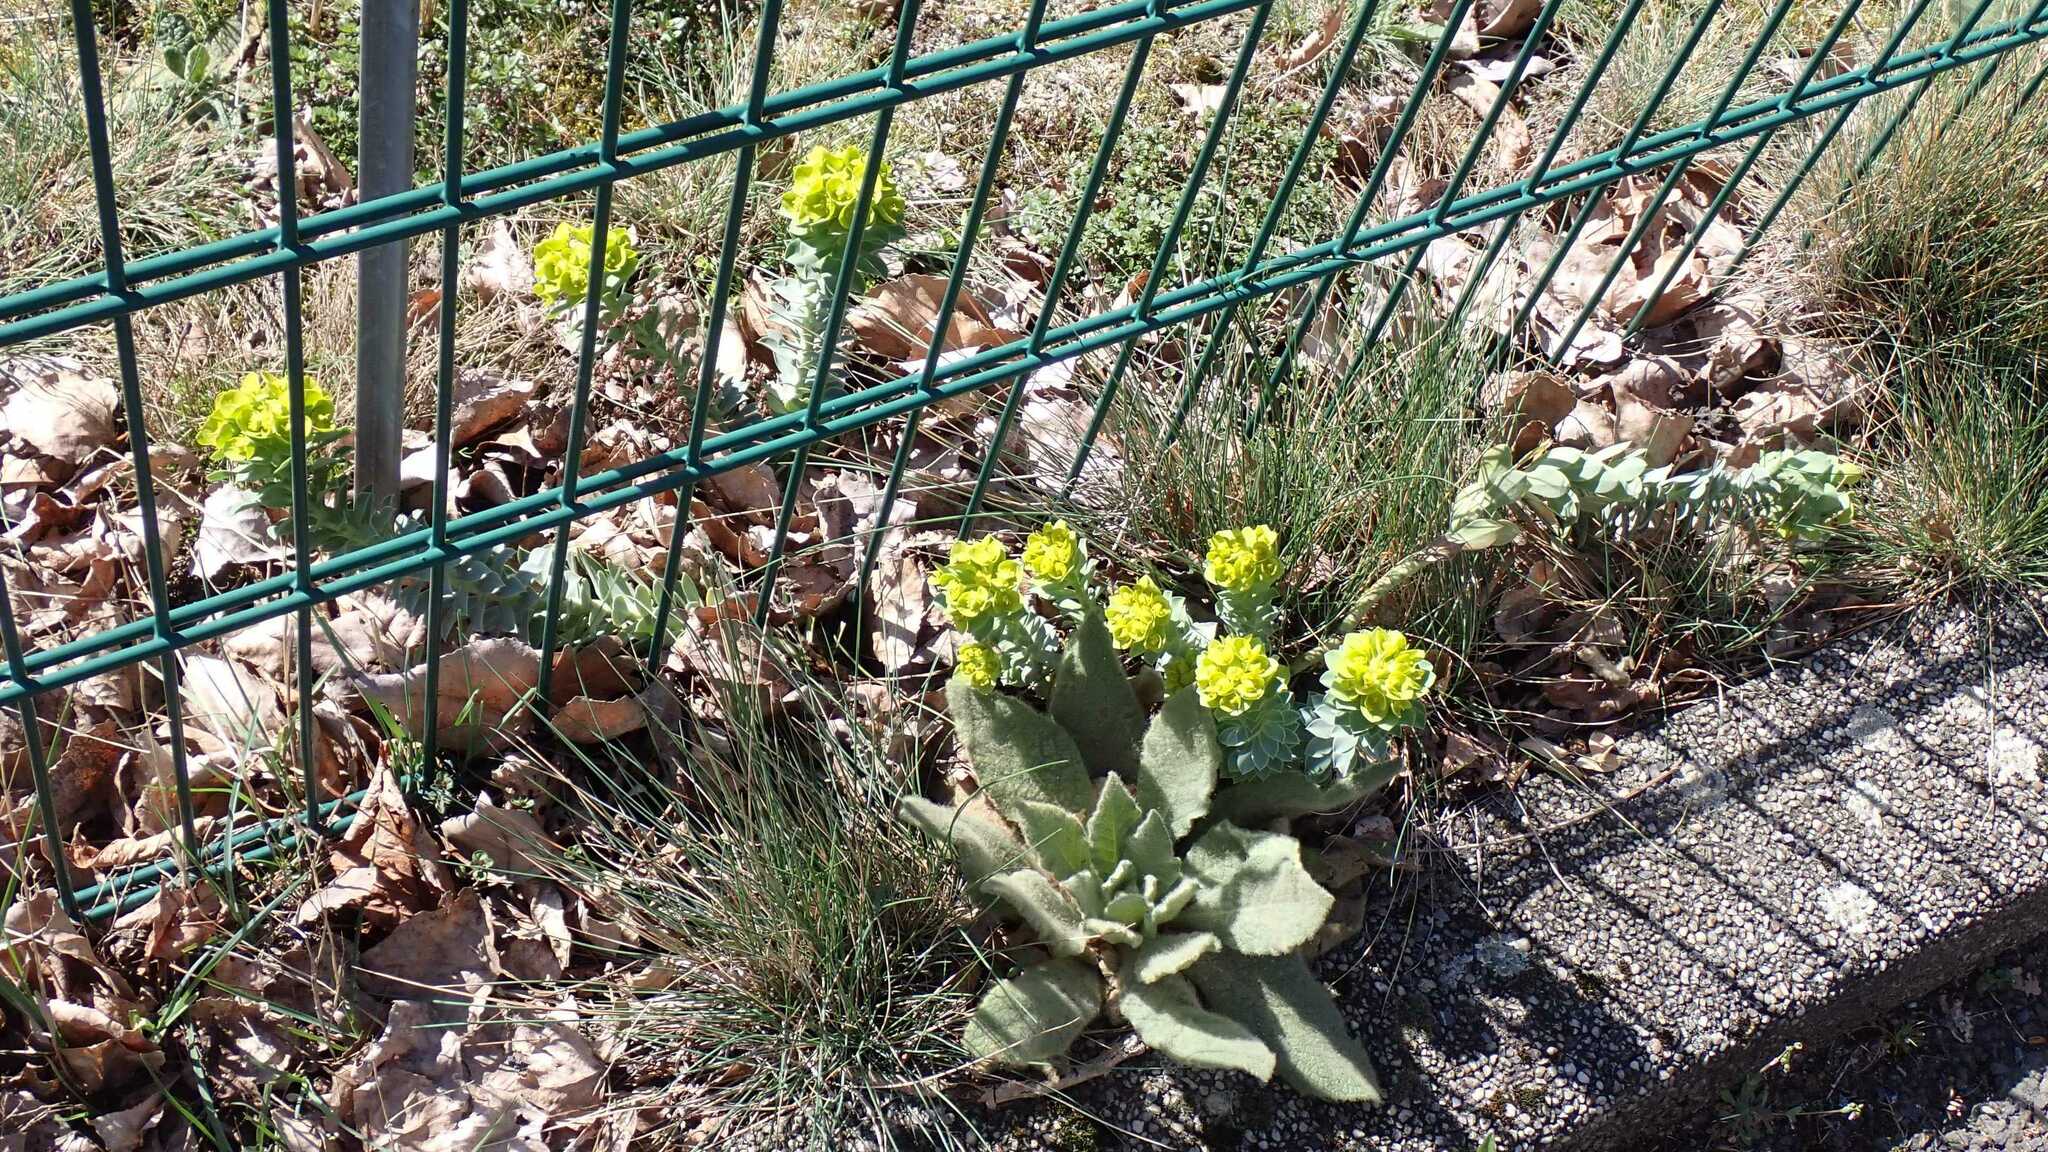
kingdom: Plantae
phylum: Tracheophyta
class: Magnoliopsida
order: Malpighiales
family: Euphorbiaceae
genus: Euphorbia
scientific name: Euphorbia myrsinites
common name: Myrtle spurge
